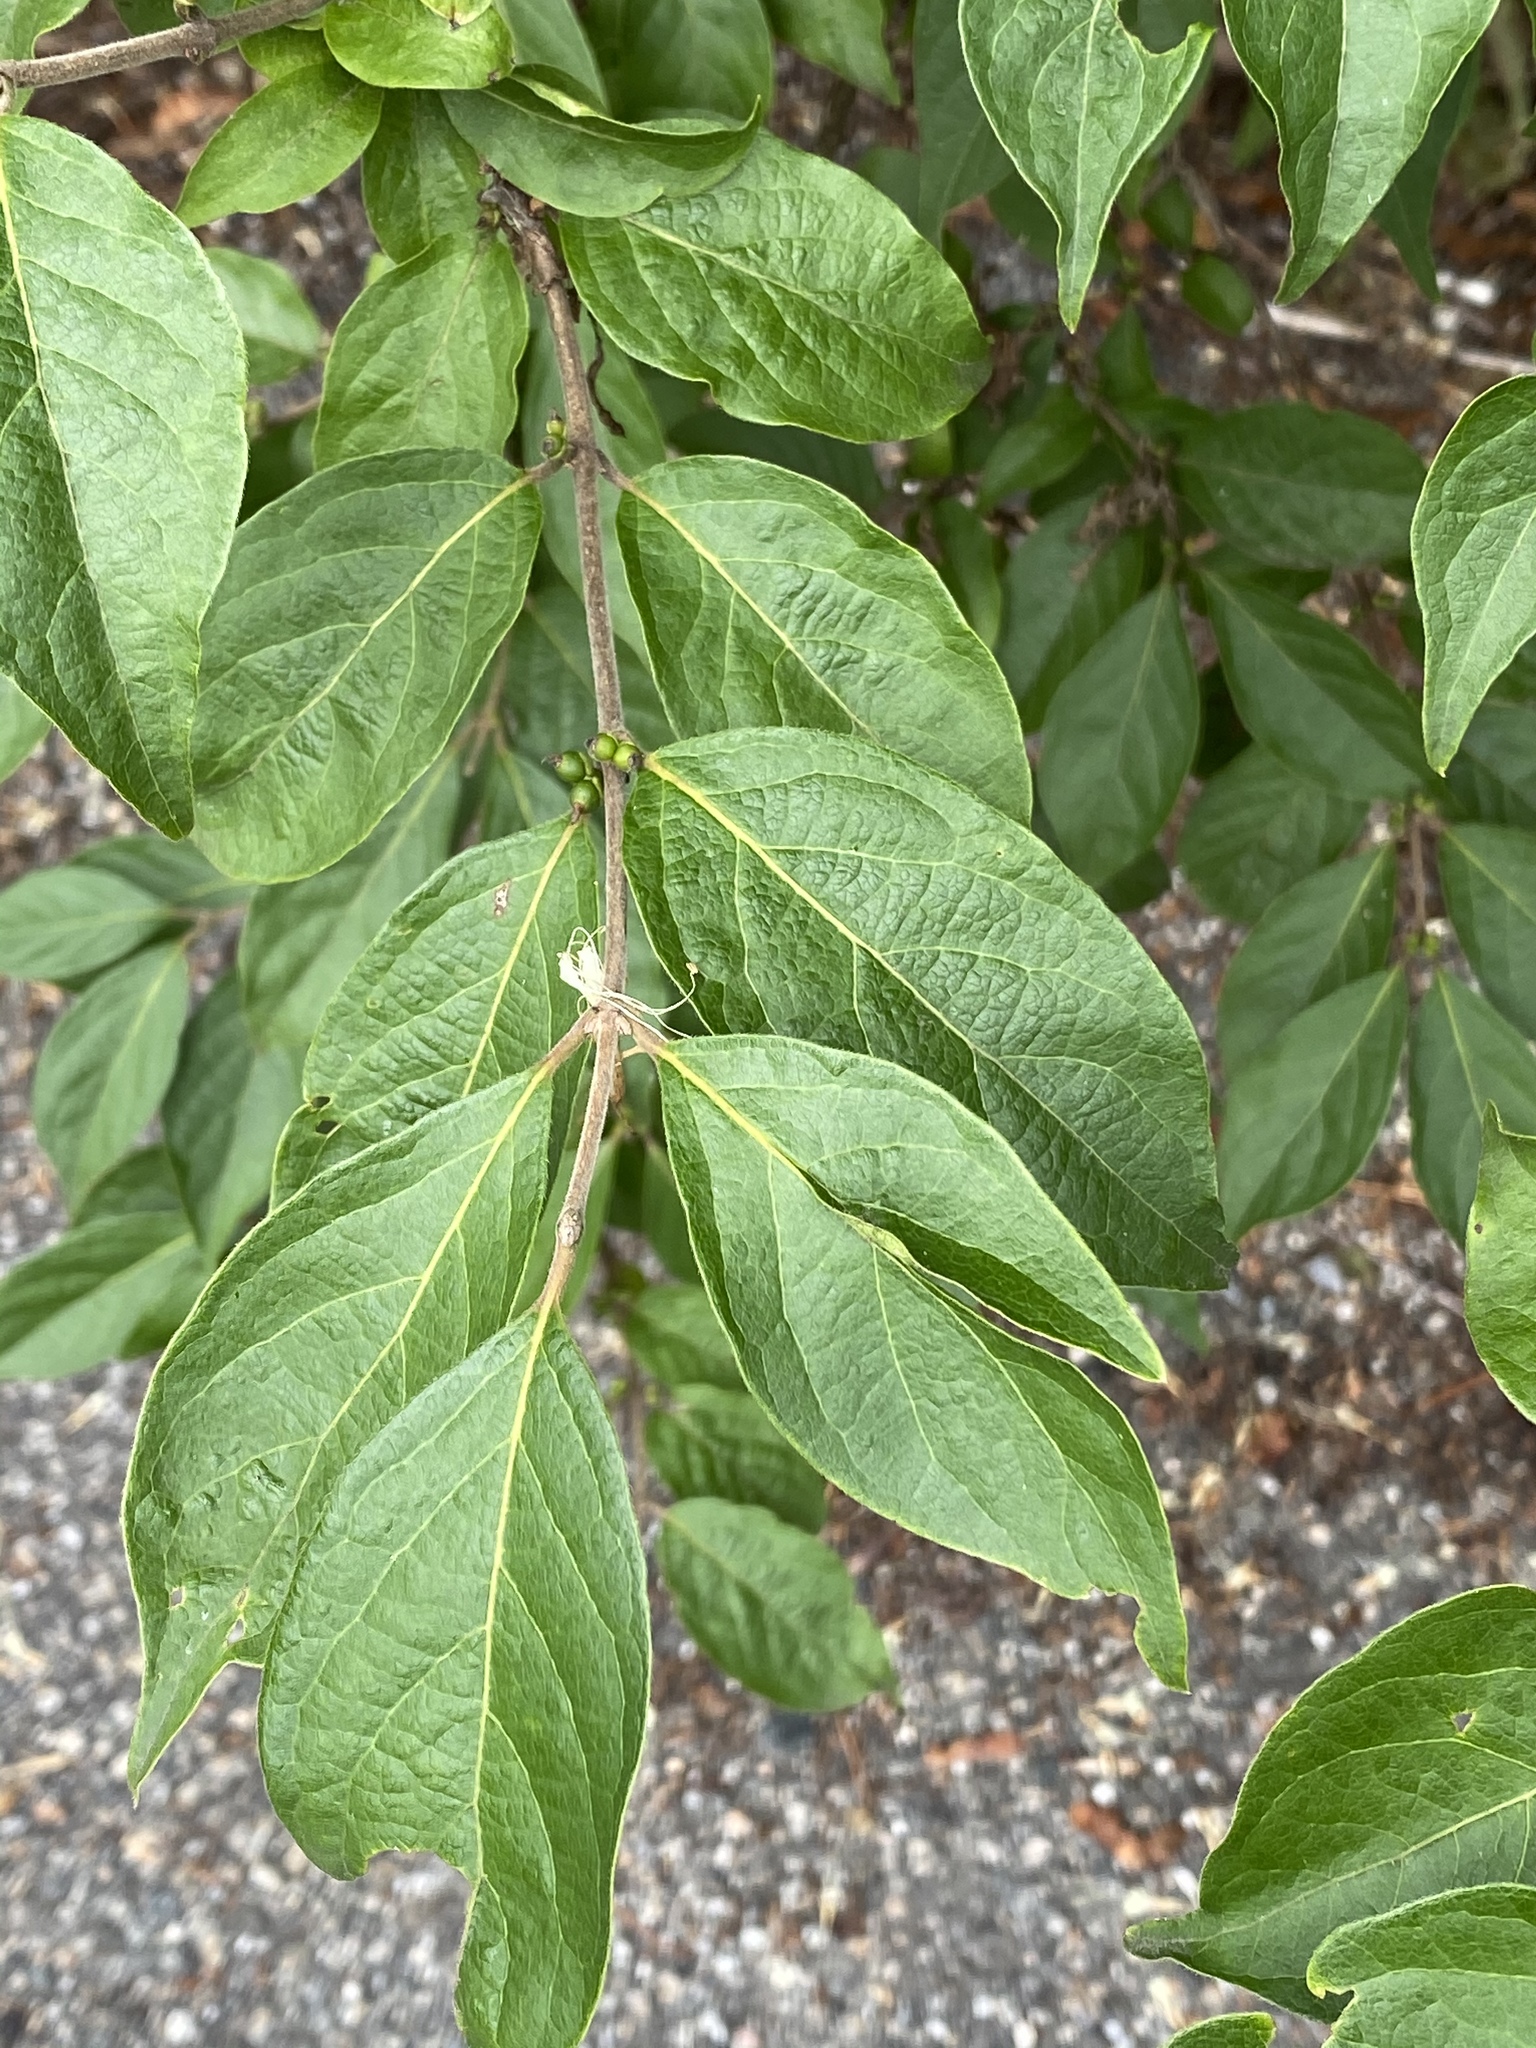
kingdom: Plantae
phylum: Tracheophyta
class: Magnoliopsida
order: Dipsacales
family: Caprifoliaceae
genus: Lonicera
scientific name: Lonicera maackii
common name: Amur honeysuckle
